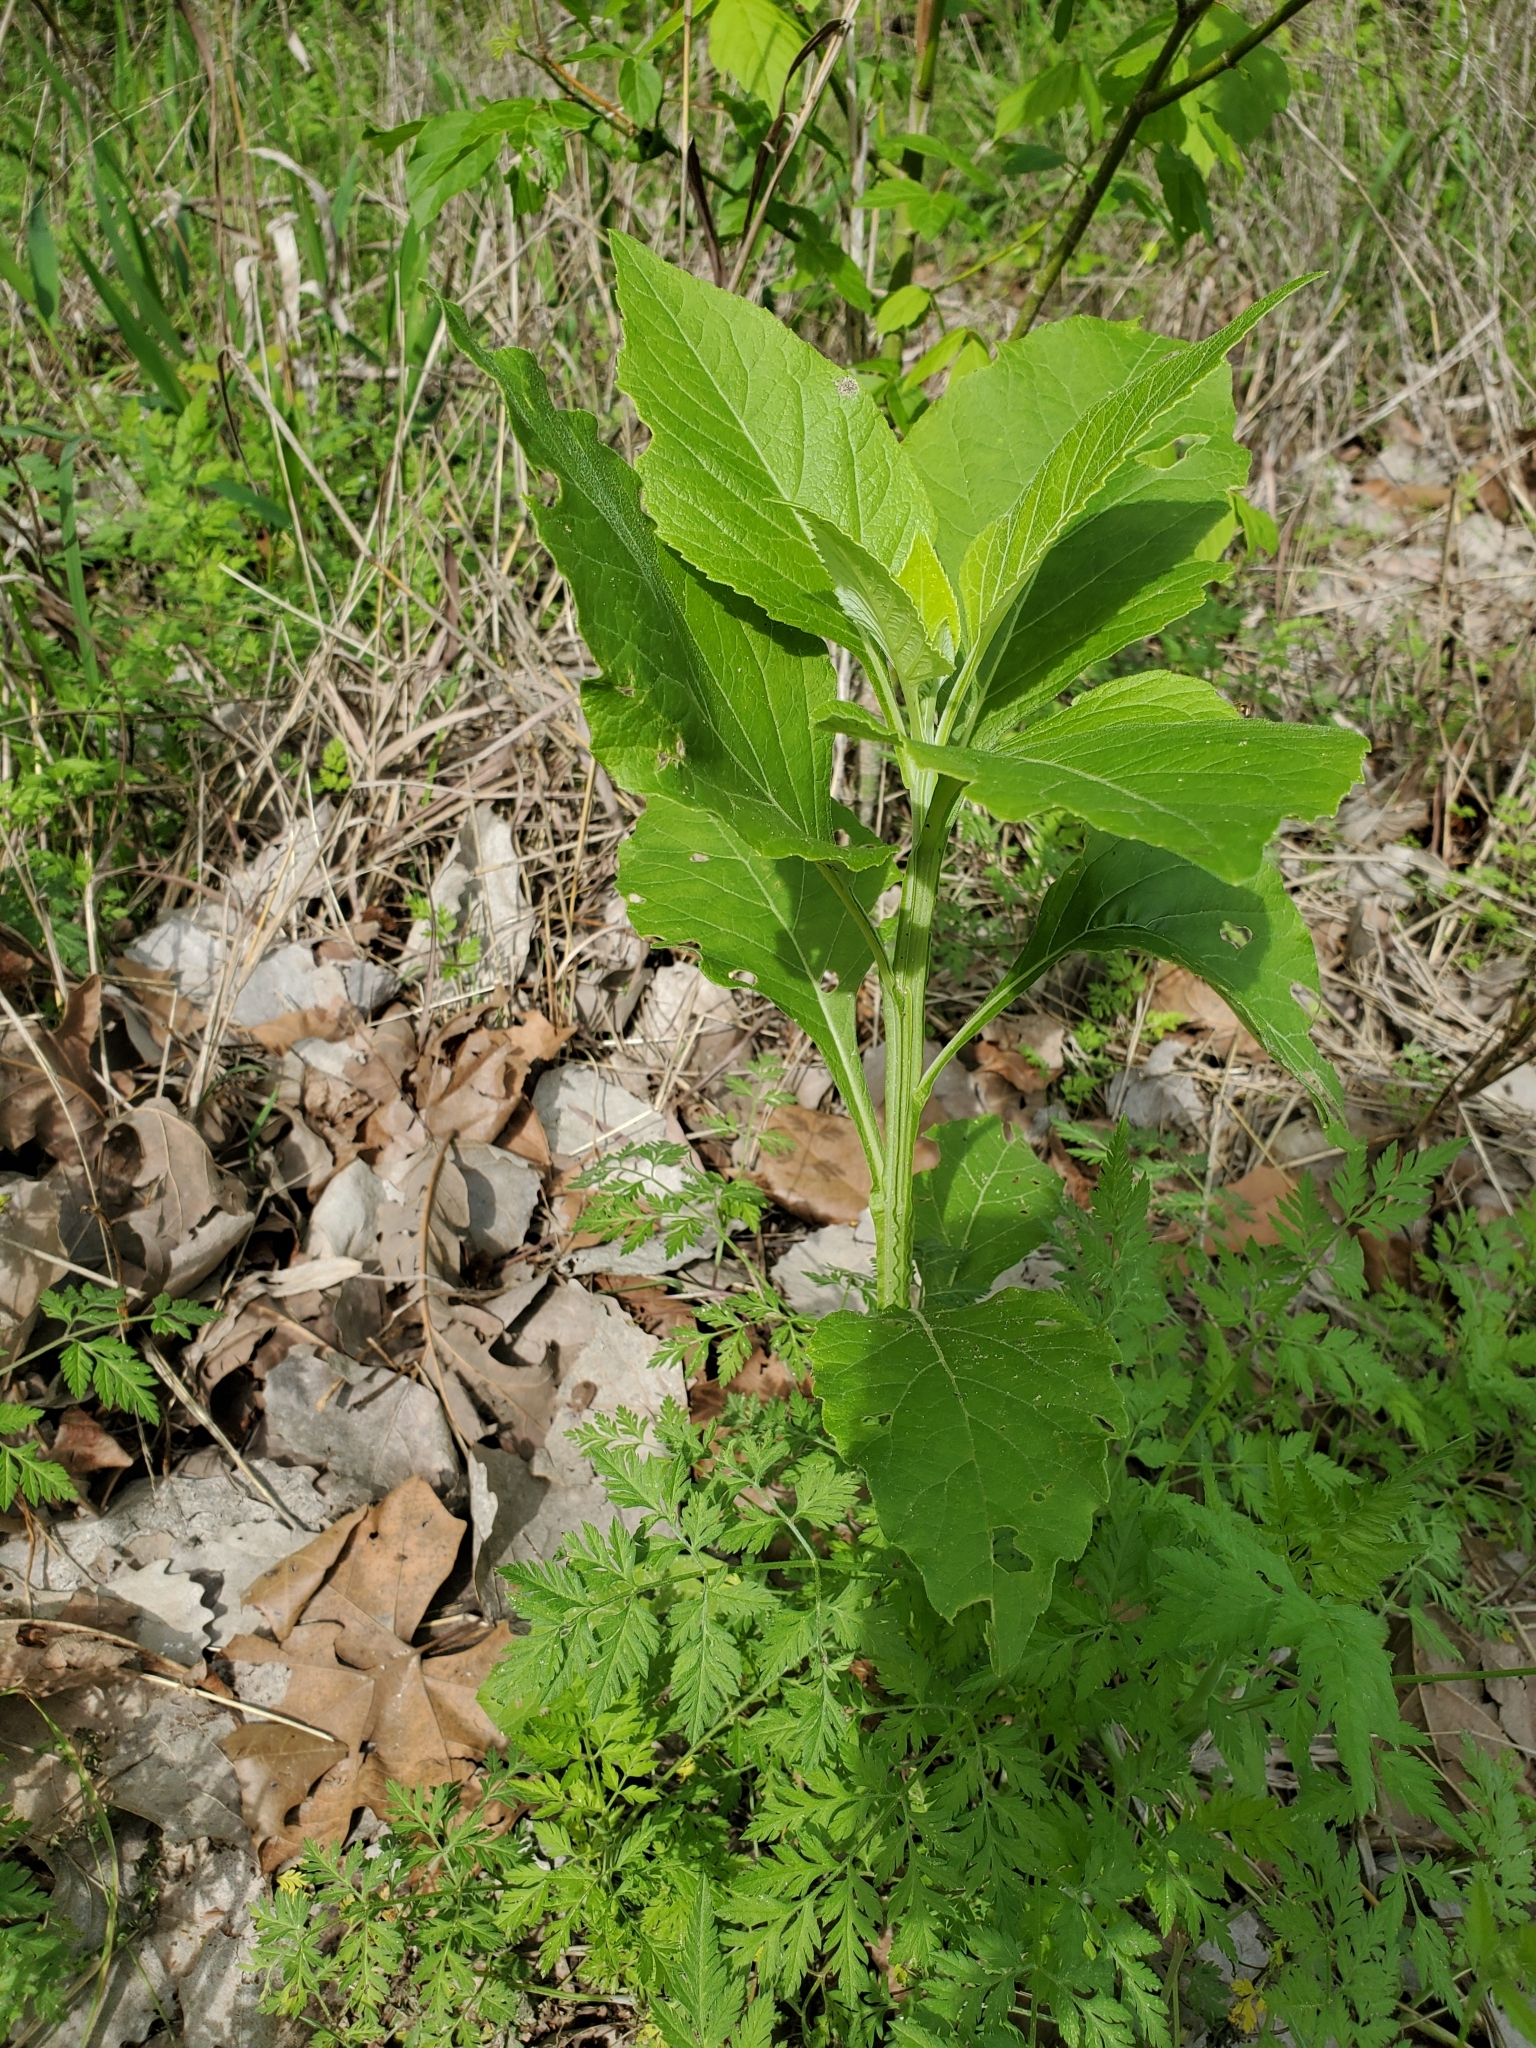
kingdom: Plantae
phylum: Tracheophyta
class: Magnoliopsida
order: Asterales
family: Asteraceae
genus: Verbesina
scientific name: Verbesina virginica
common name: Frostweed
